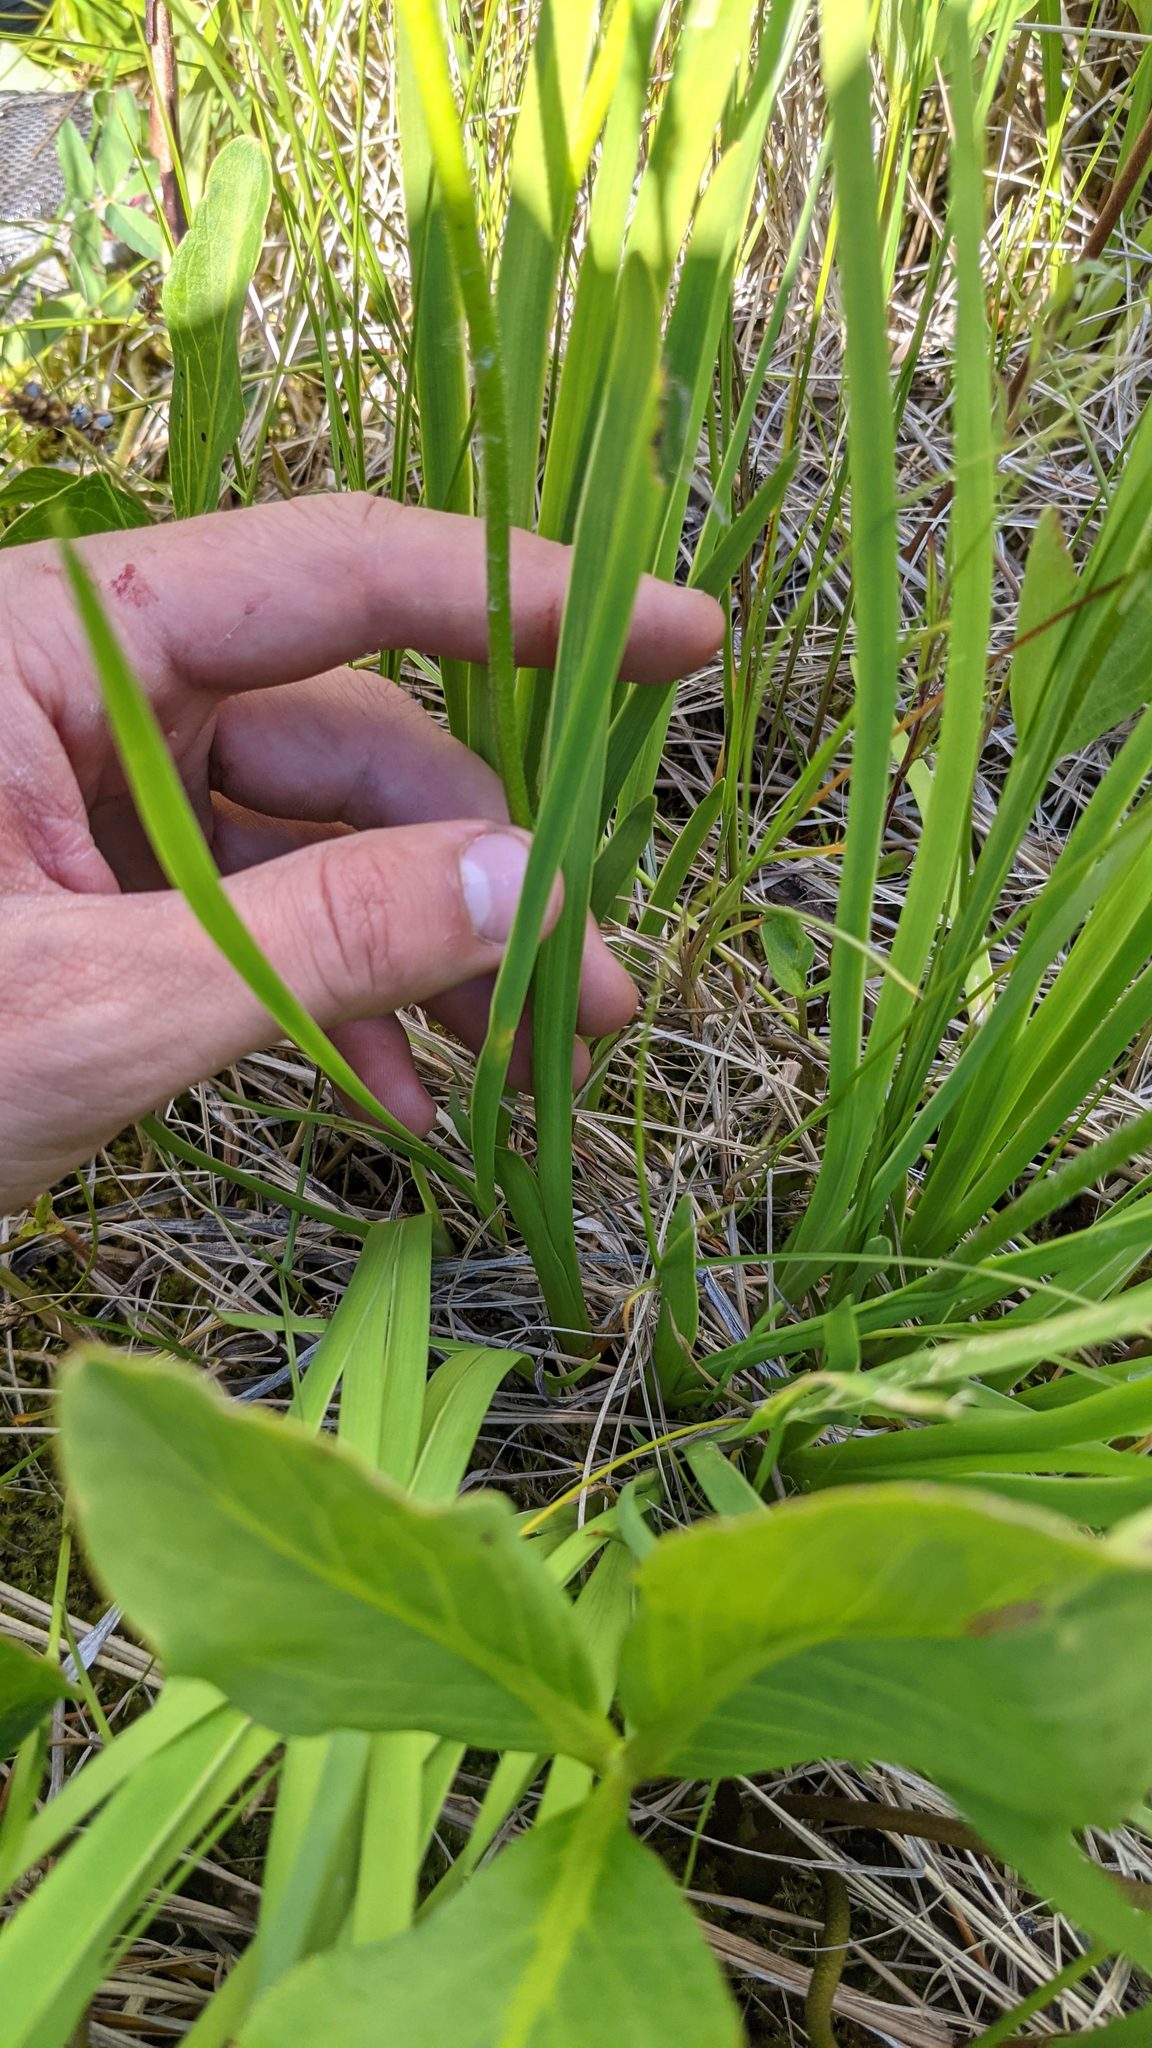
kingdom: Plantae
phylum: Tracheophyta
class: Liliopsida
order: Alismatales
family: Tofieldiaceae
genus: Triantha
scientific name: Triantha glutinosa
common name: Glutinous tofieldia
